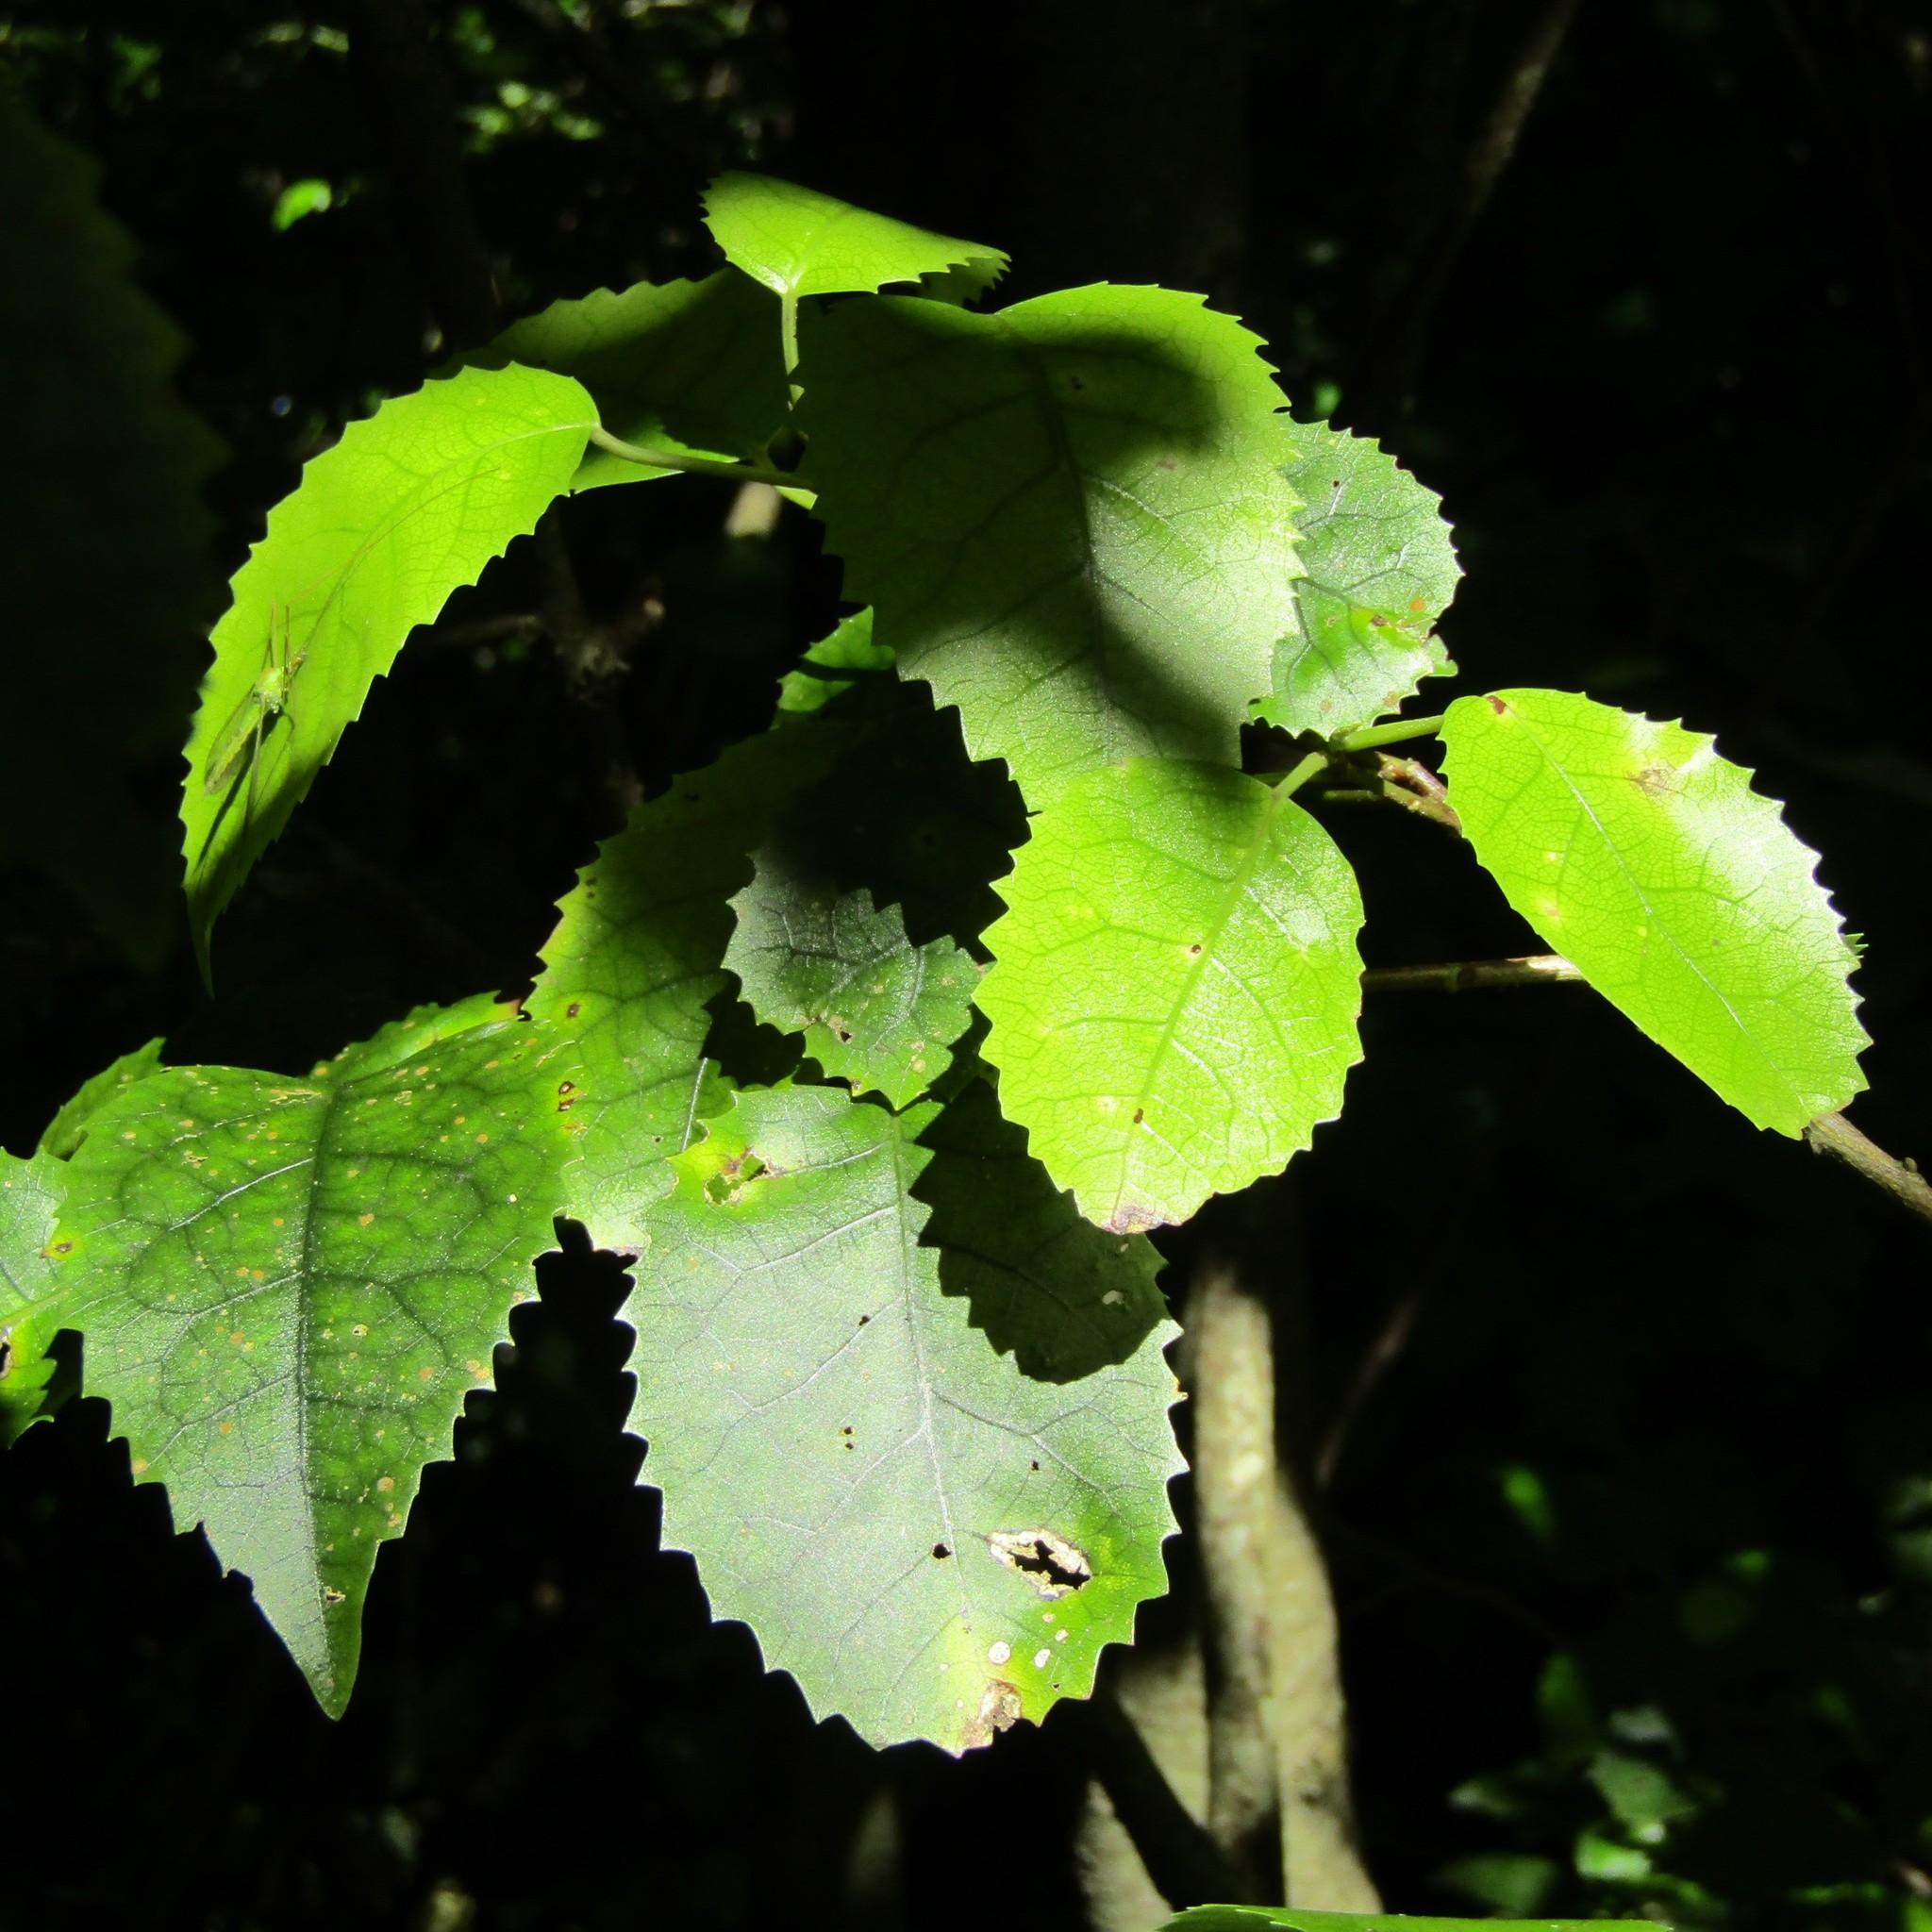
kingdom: Plantae
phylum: Tracheophyta
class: Magnoliopsida
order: Malvales
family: Malvaceae
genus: Hoheria
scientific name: Hoheria populnea
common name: Lacebark
